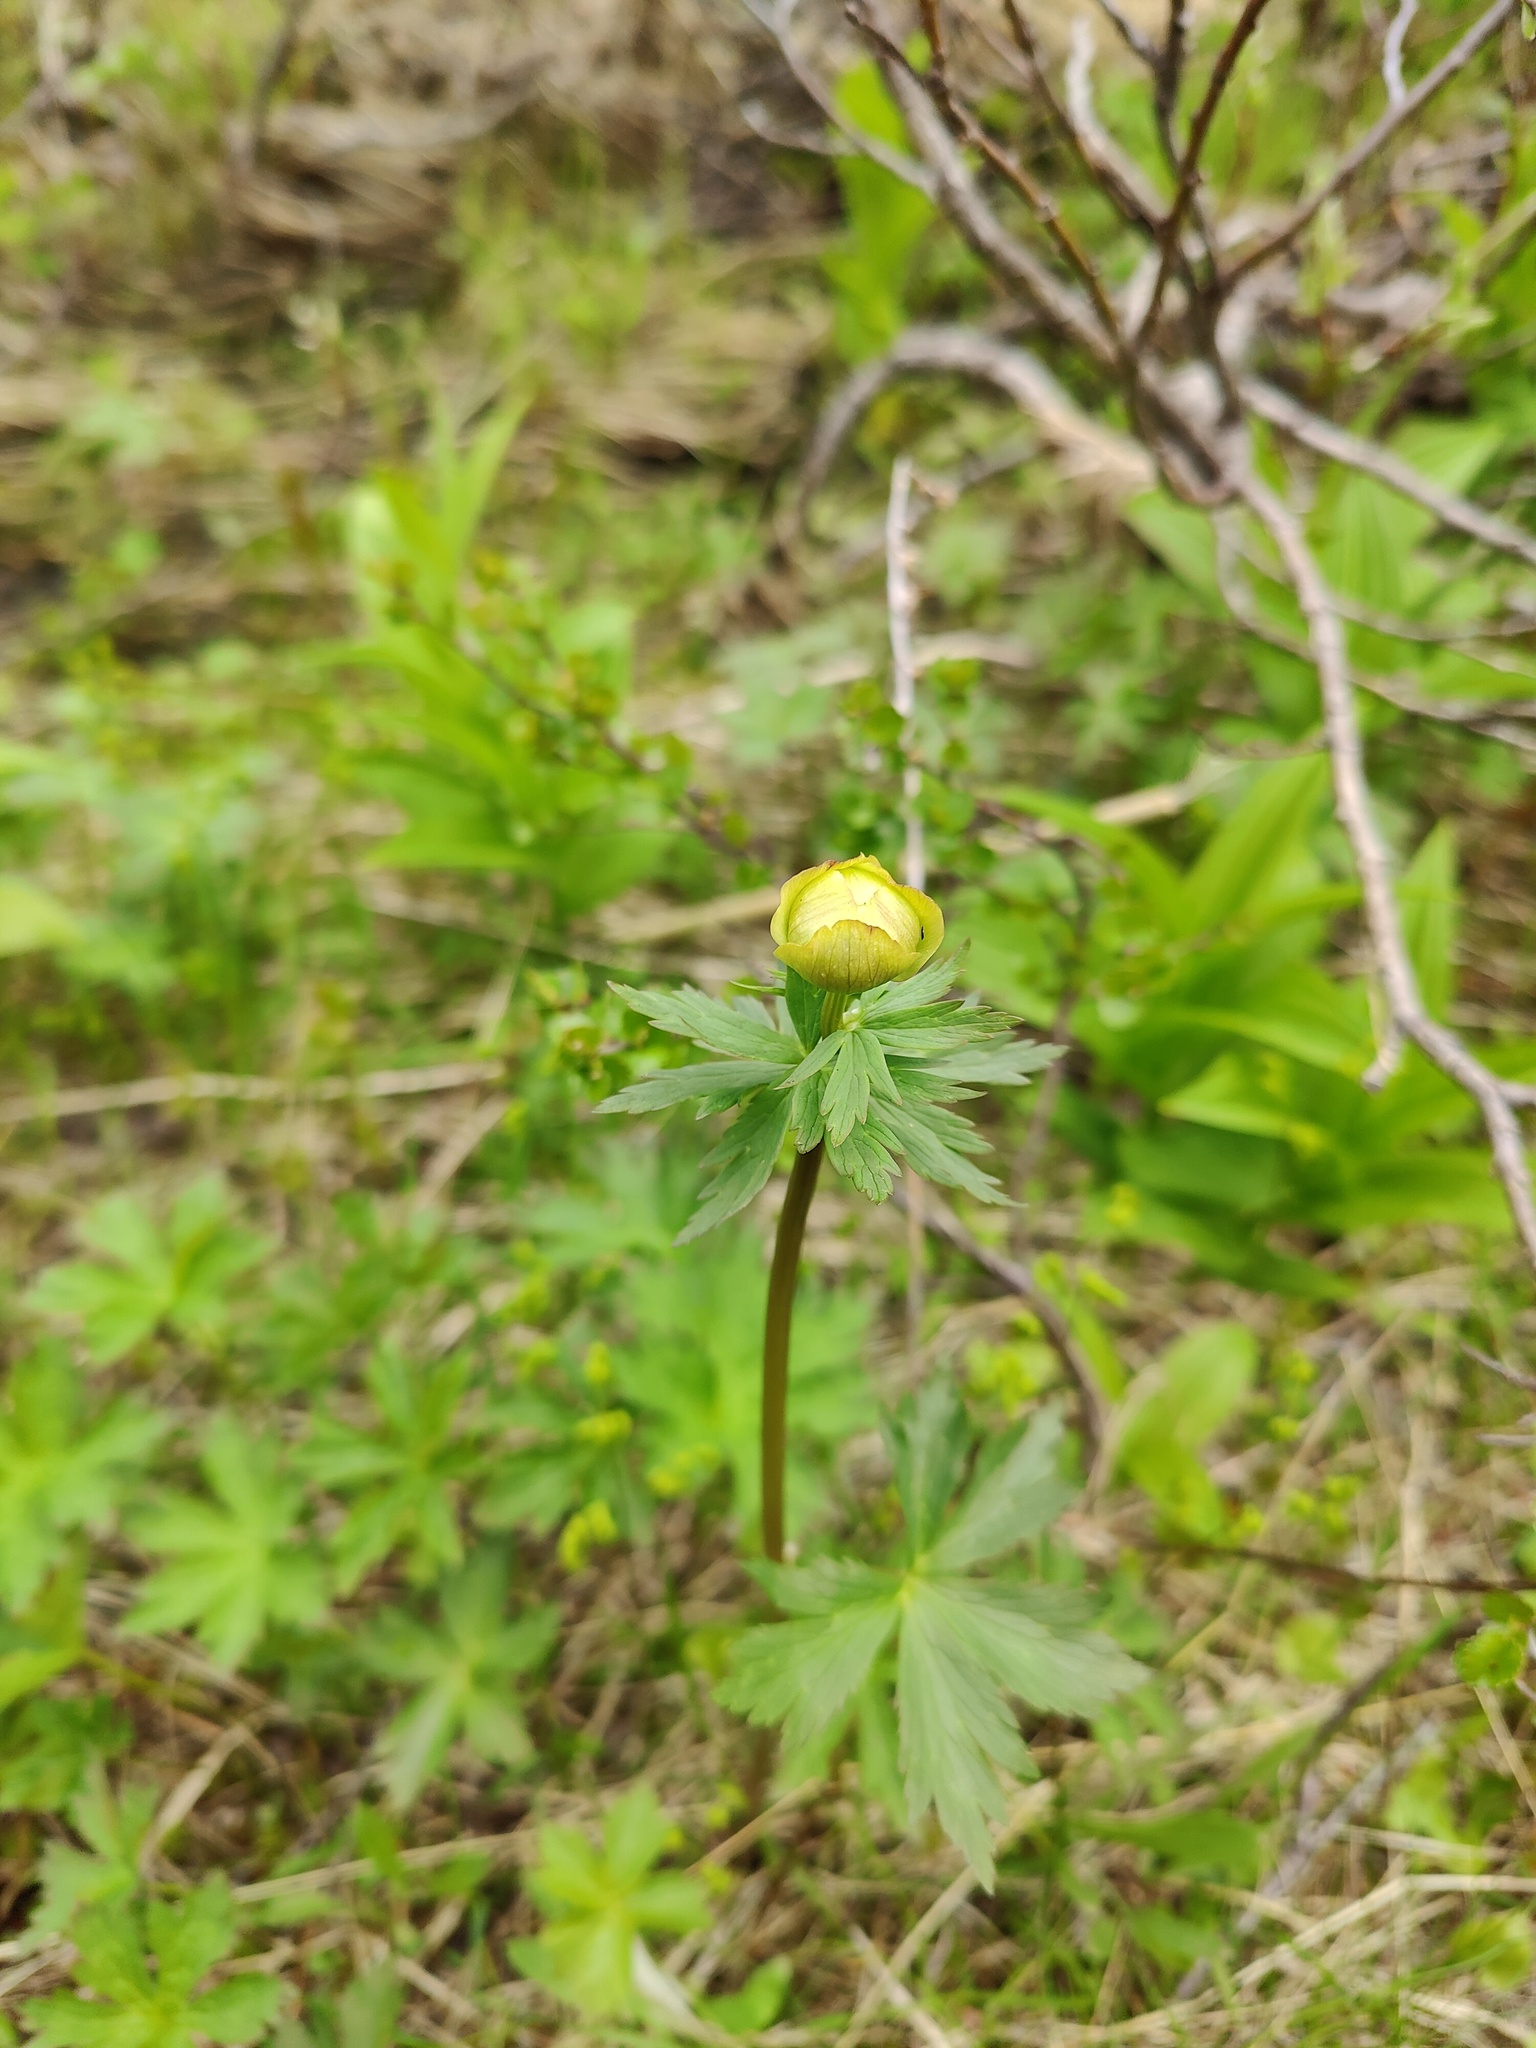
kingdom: Plantae
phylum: Tracheophyta
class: Magnoliopsida
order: Ranunculales
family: Ranunculaceae
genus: Trollius
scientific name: Trollius europaeus
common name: European globeflower
